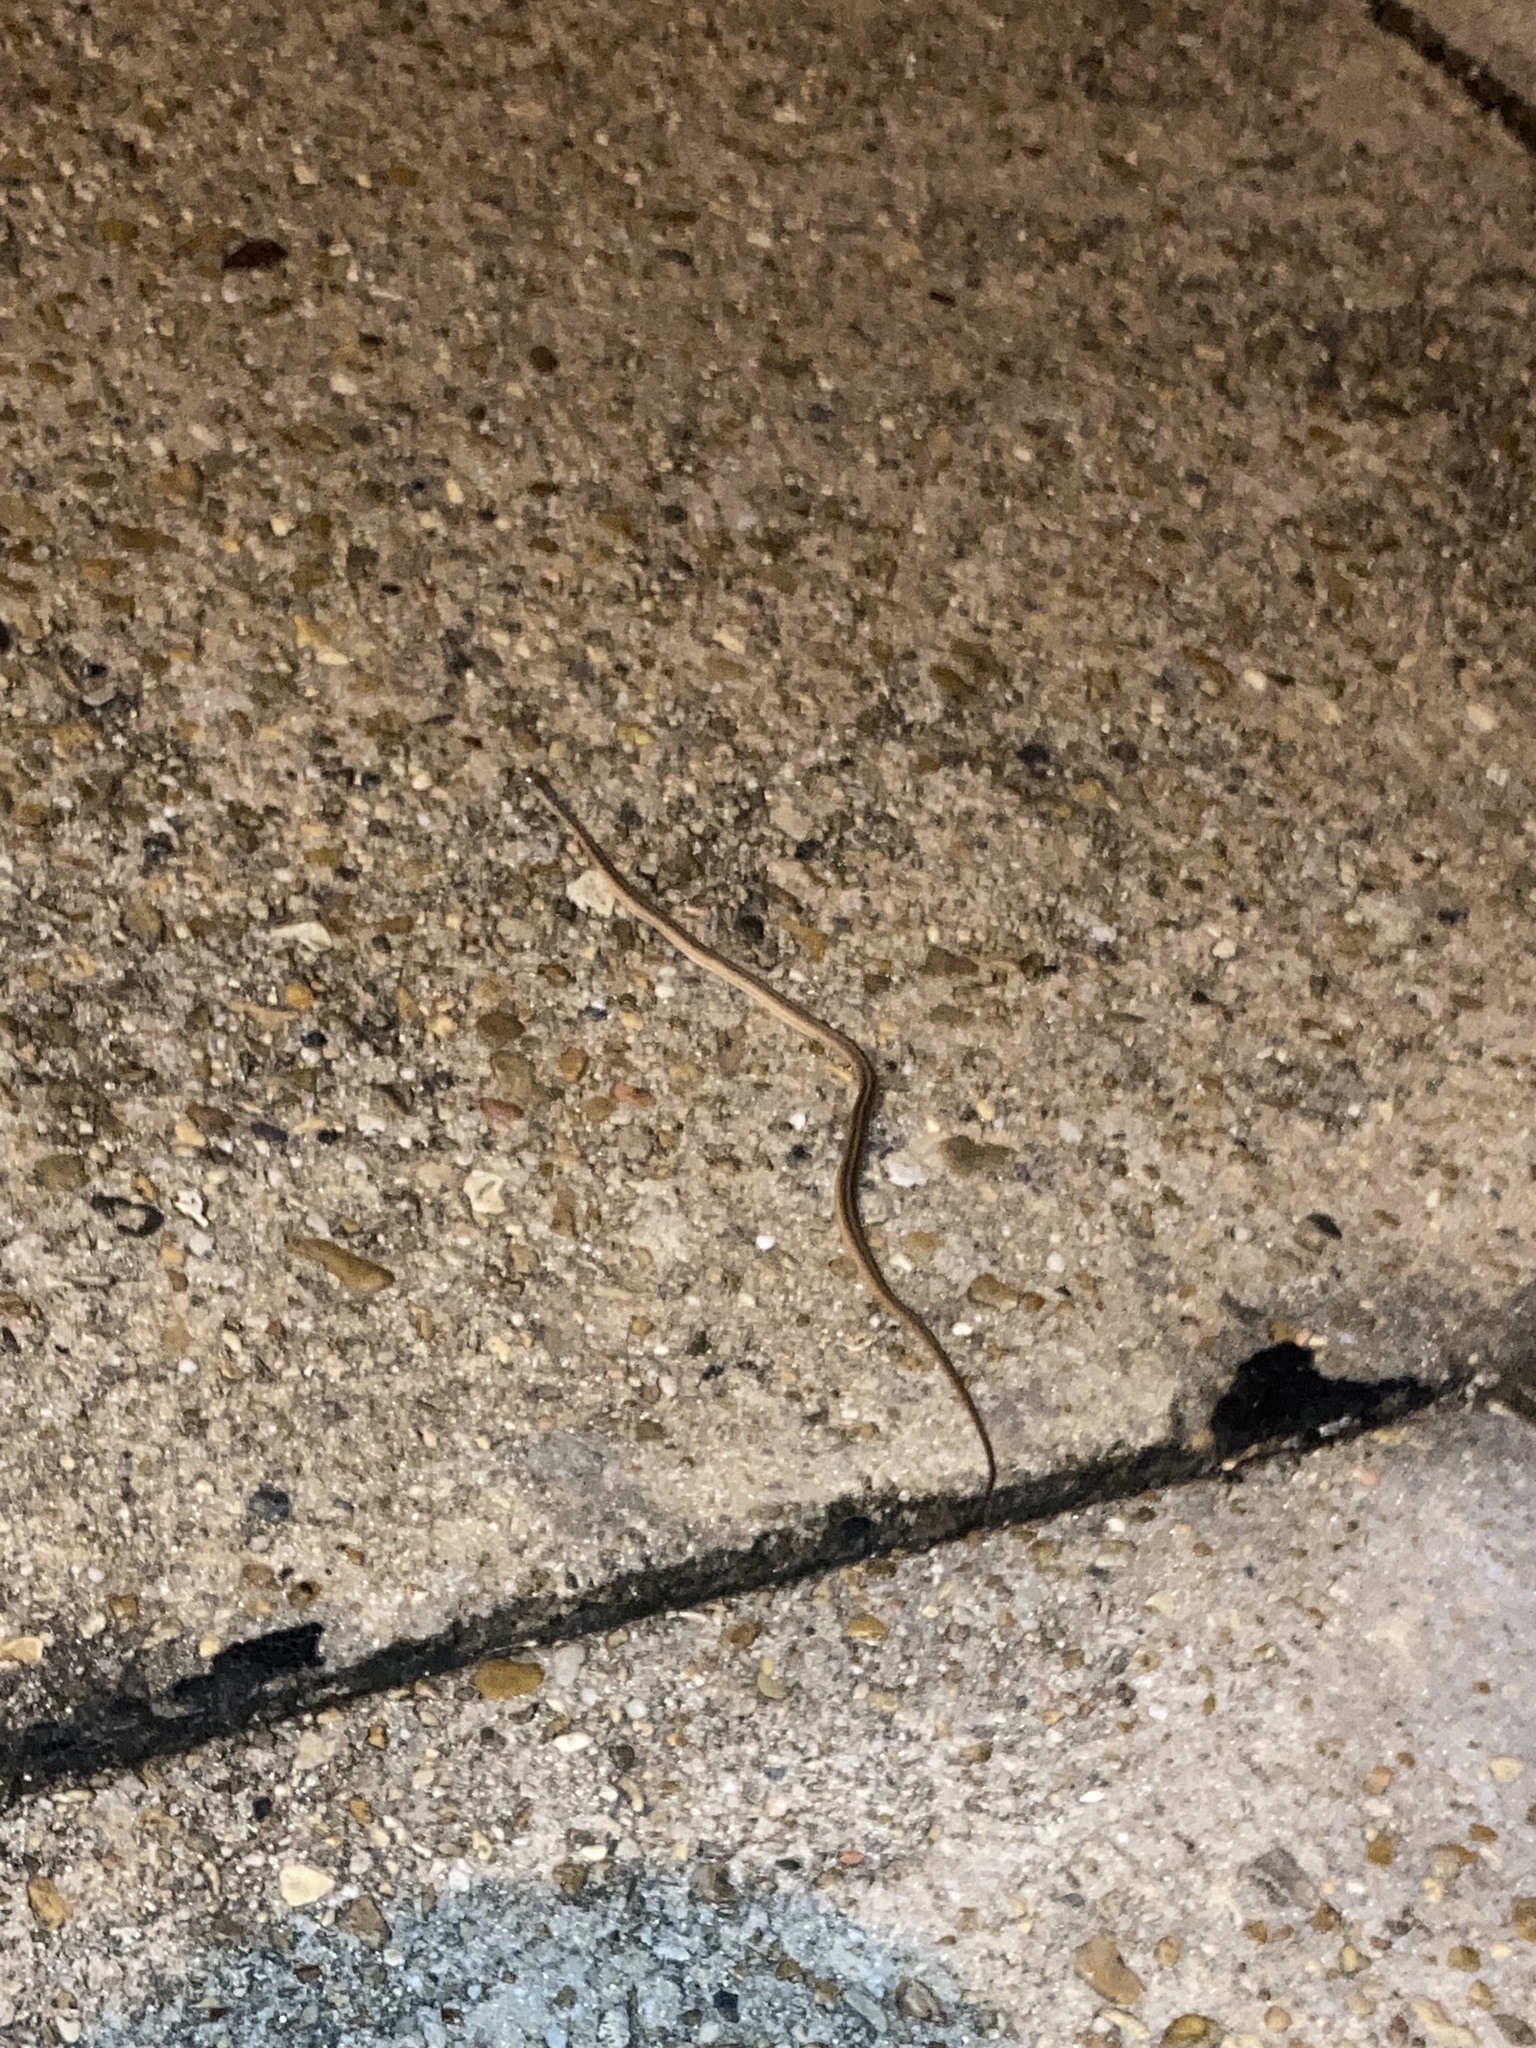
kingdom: Animalia
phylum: Chordata
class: Squamata
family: Colubridae
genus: Thamnophis
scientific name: Thamnophis
